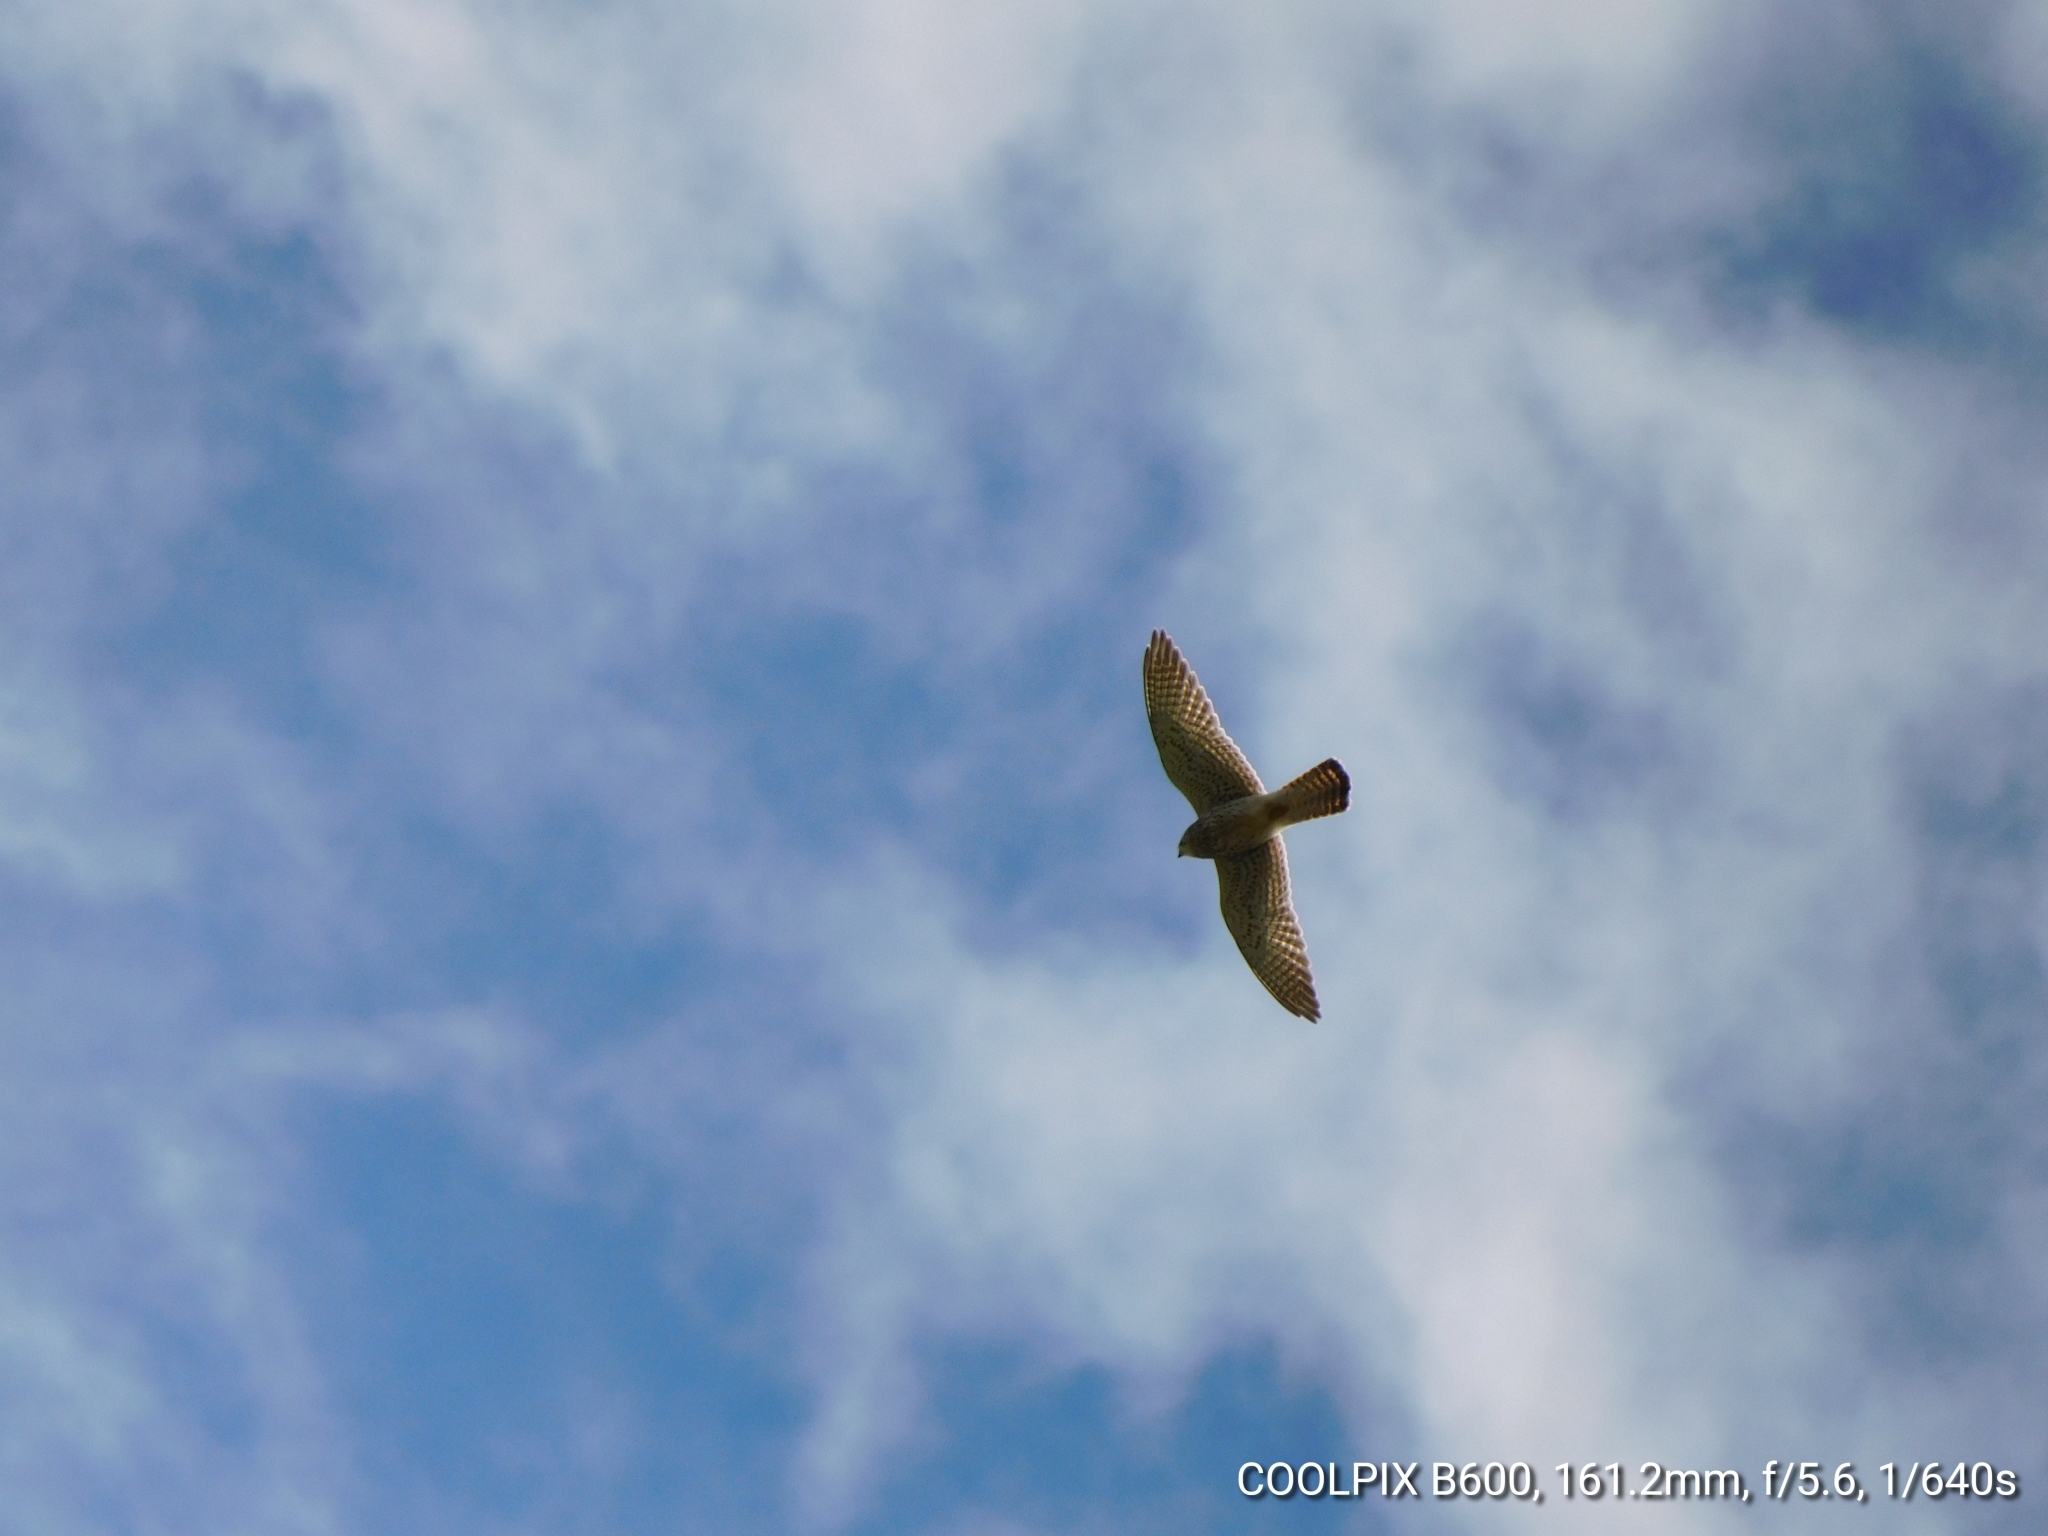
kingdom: Animalia
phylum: Chordata
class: Aves
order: Falconiformes
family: Falconidae
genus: Falco
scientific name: Falco tinnunculus
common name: Common kestrel
